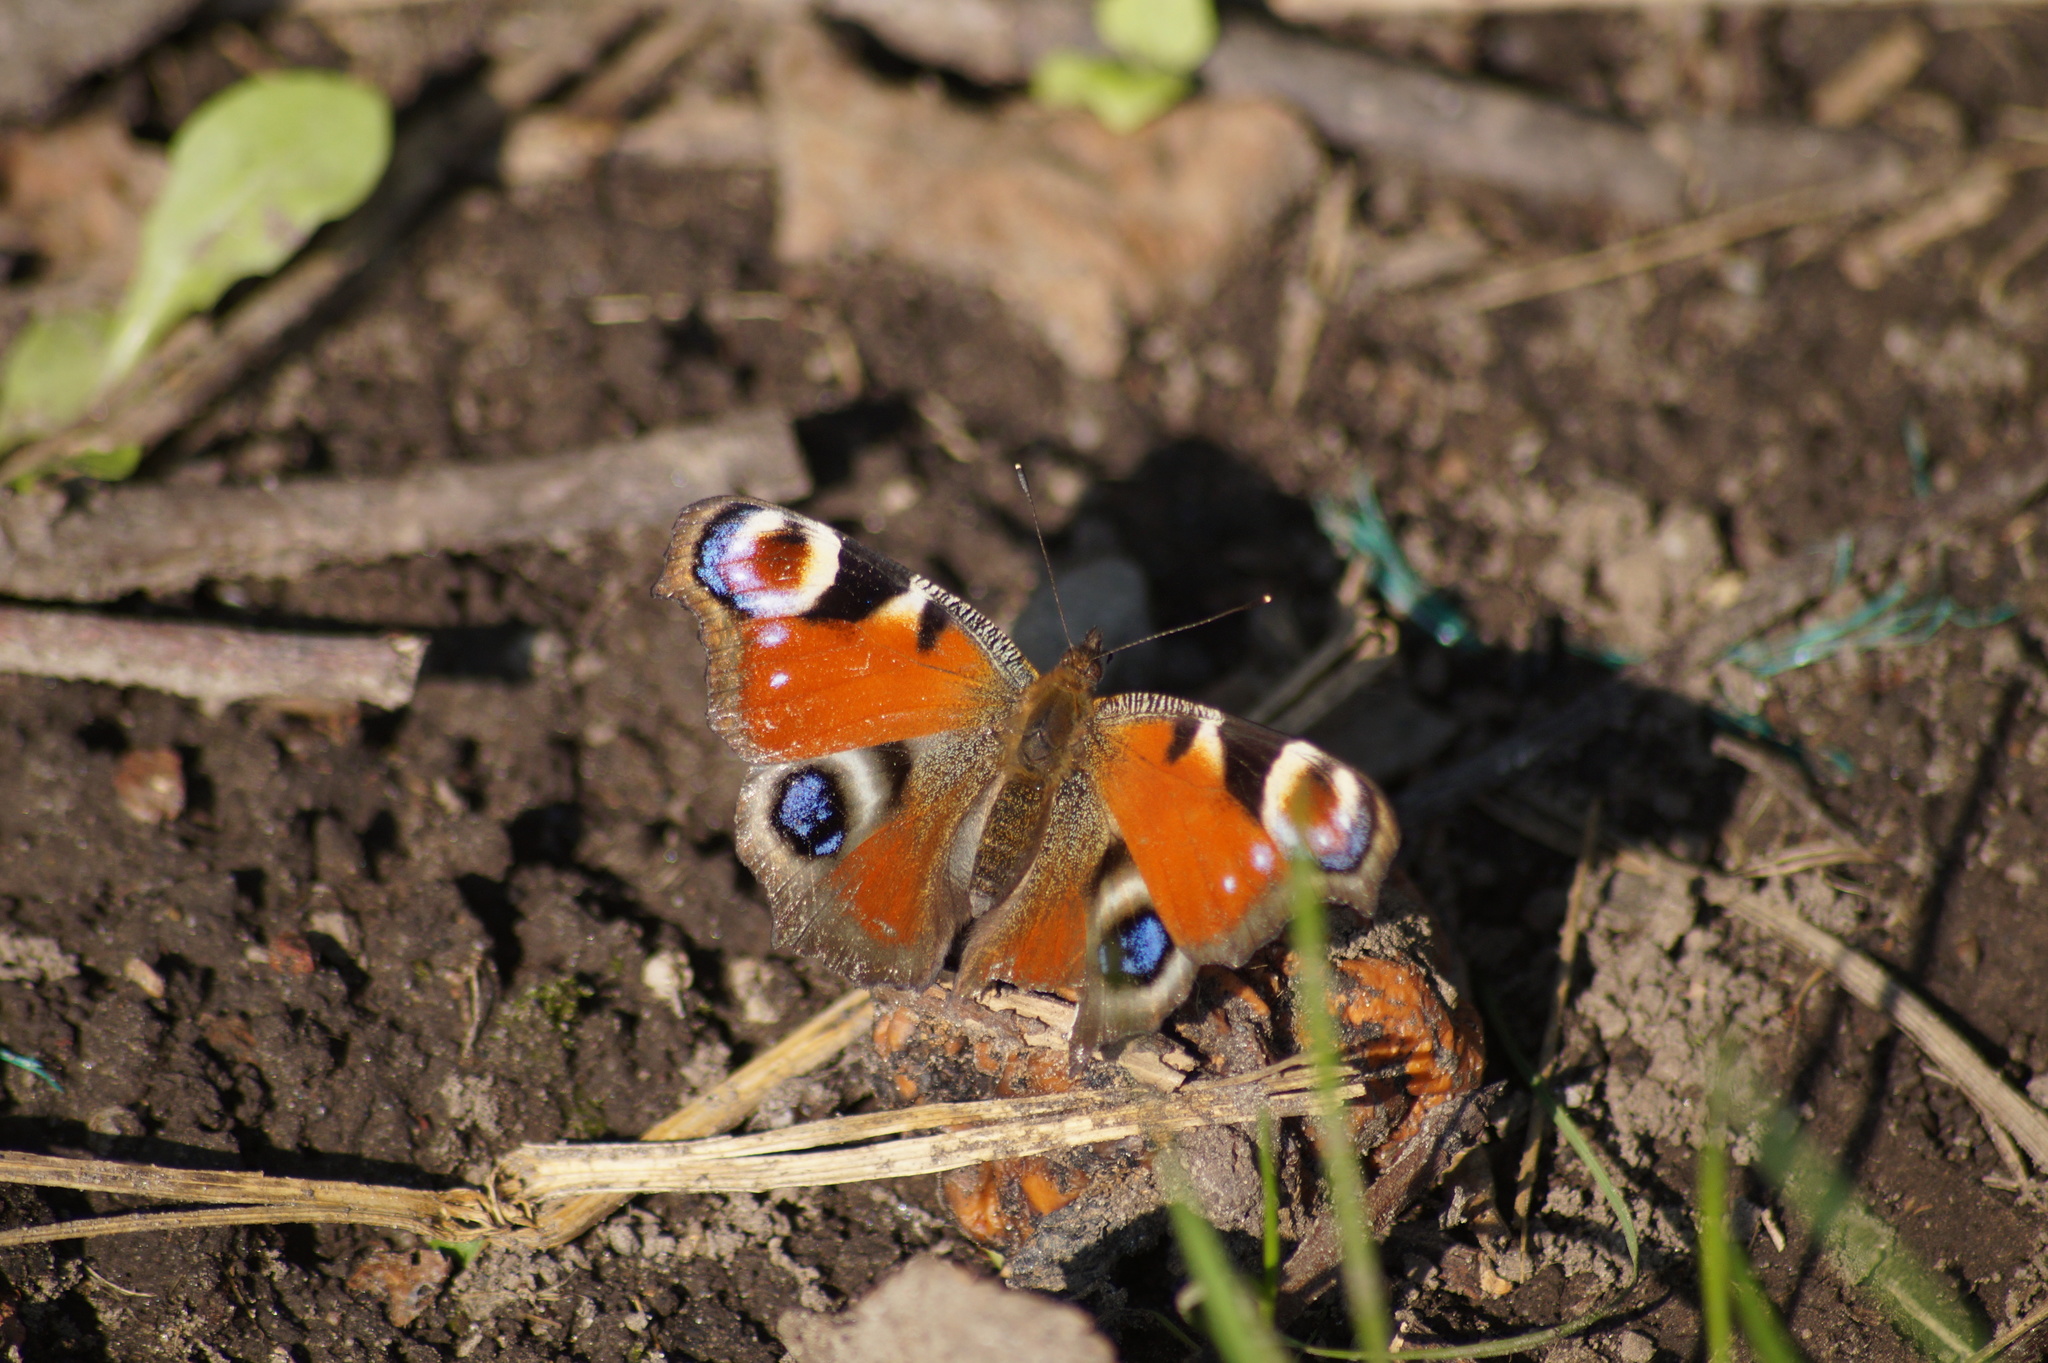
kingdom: Animalia
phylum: Arthropoda
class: Insecta
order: Lepidoptera
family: Nymphalidae
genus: Aglais
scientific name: Aglais io
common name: Peacock
